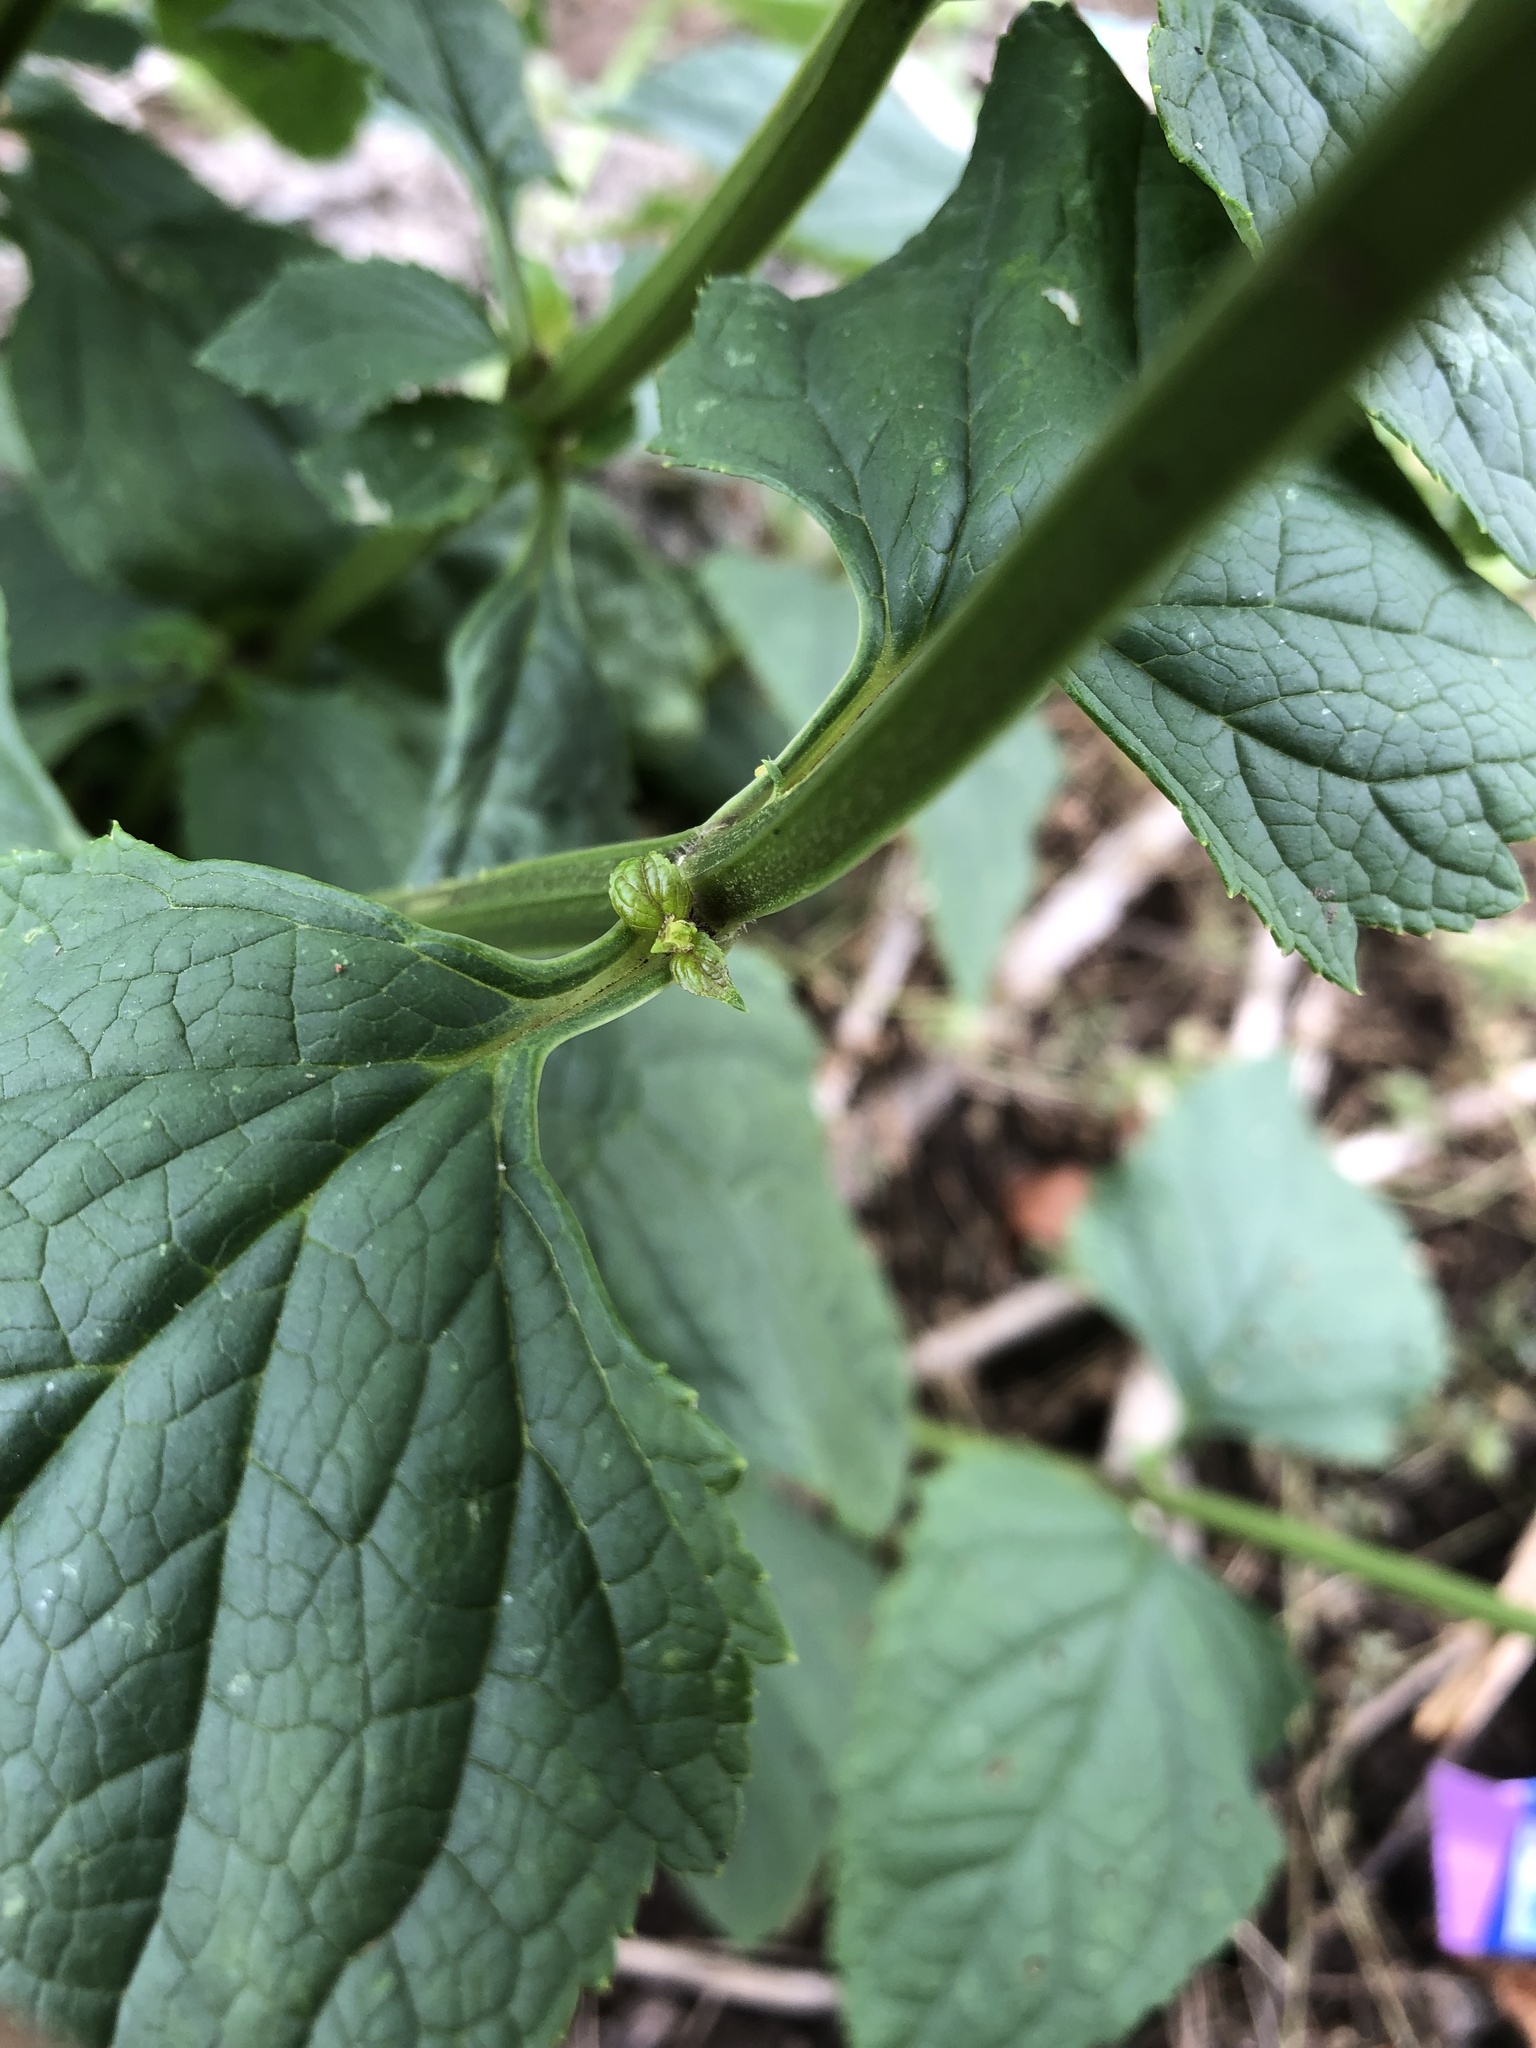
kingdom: Plantae
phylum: Tracheophyta
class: Magnoliopsida
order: Lamiales
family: Scrophulariaceae
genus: Scrophularia
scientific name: Scrophularia nodosa
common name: Common figwort
